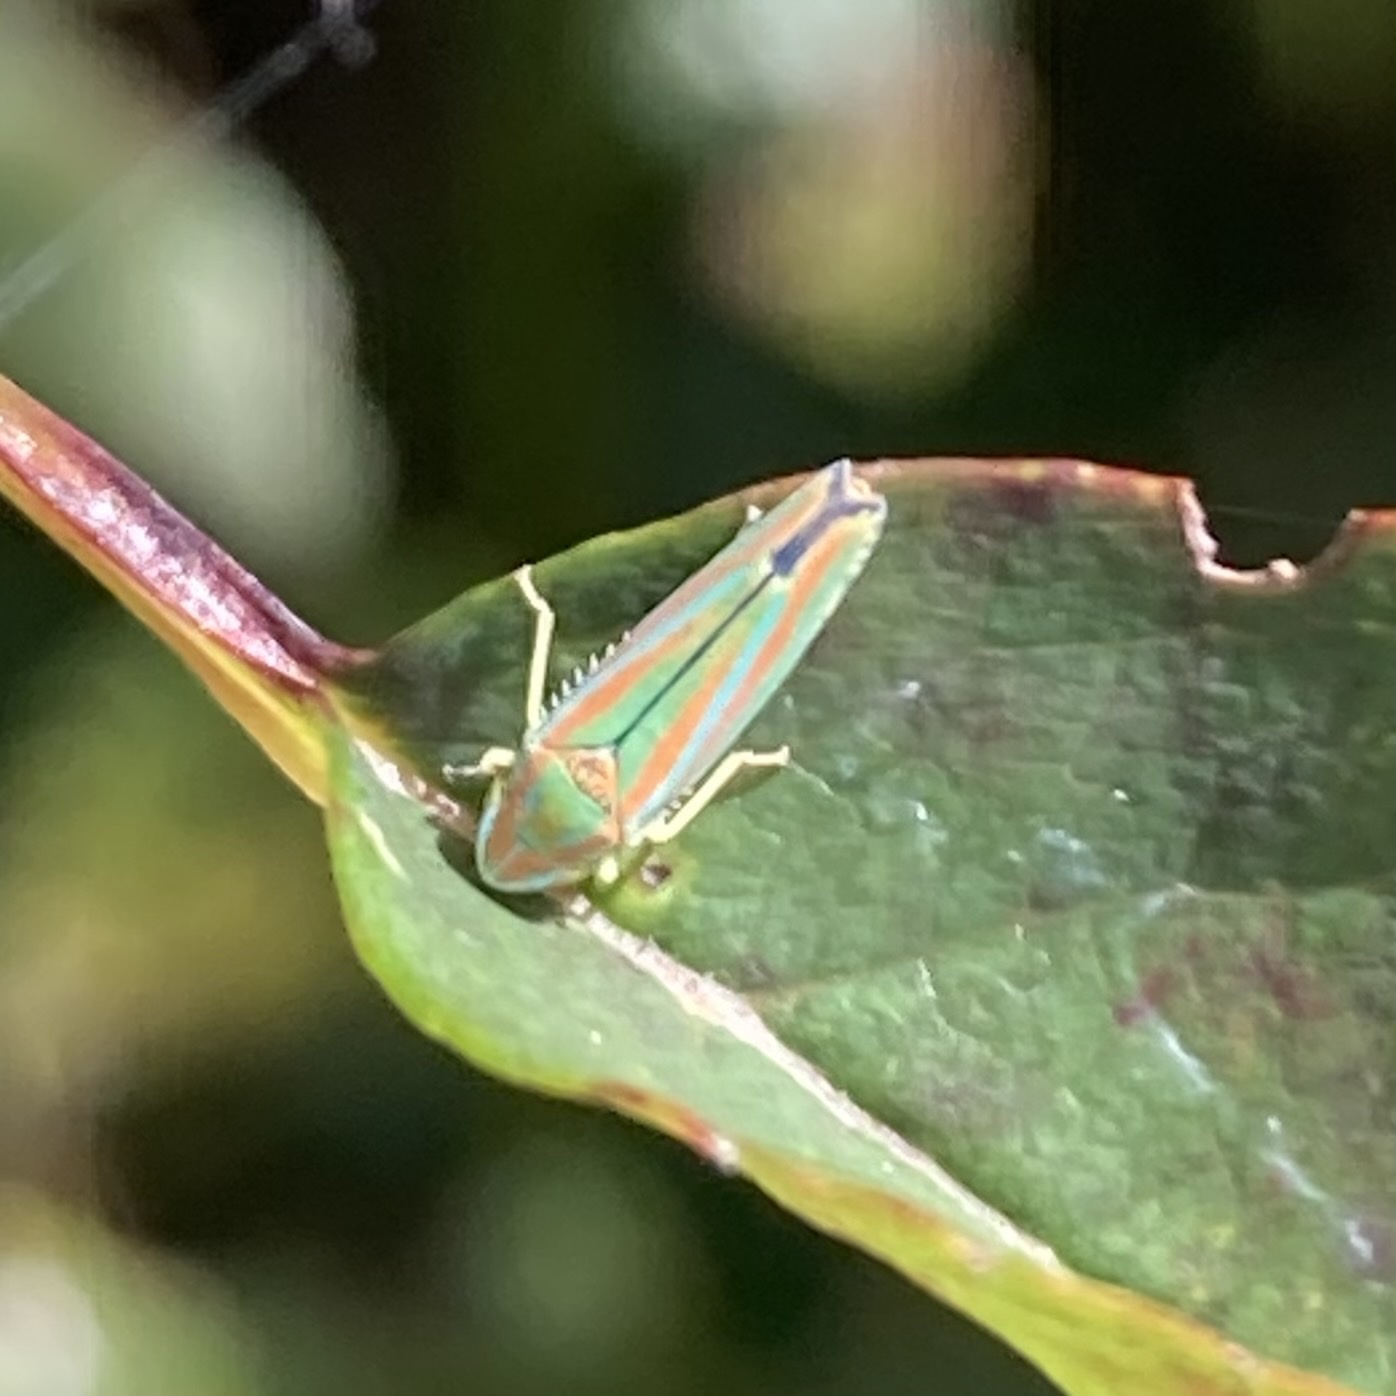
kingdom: Animalia
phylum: Arthropoda
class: Insecta
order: Hemiptera
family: Cicadellidae
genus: Graphocephala
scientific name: Graphocephala versuta
